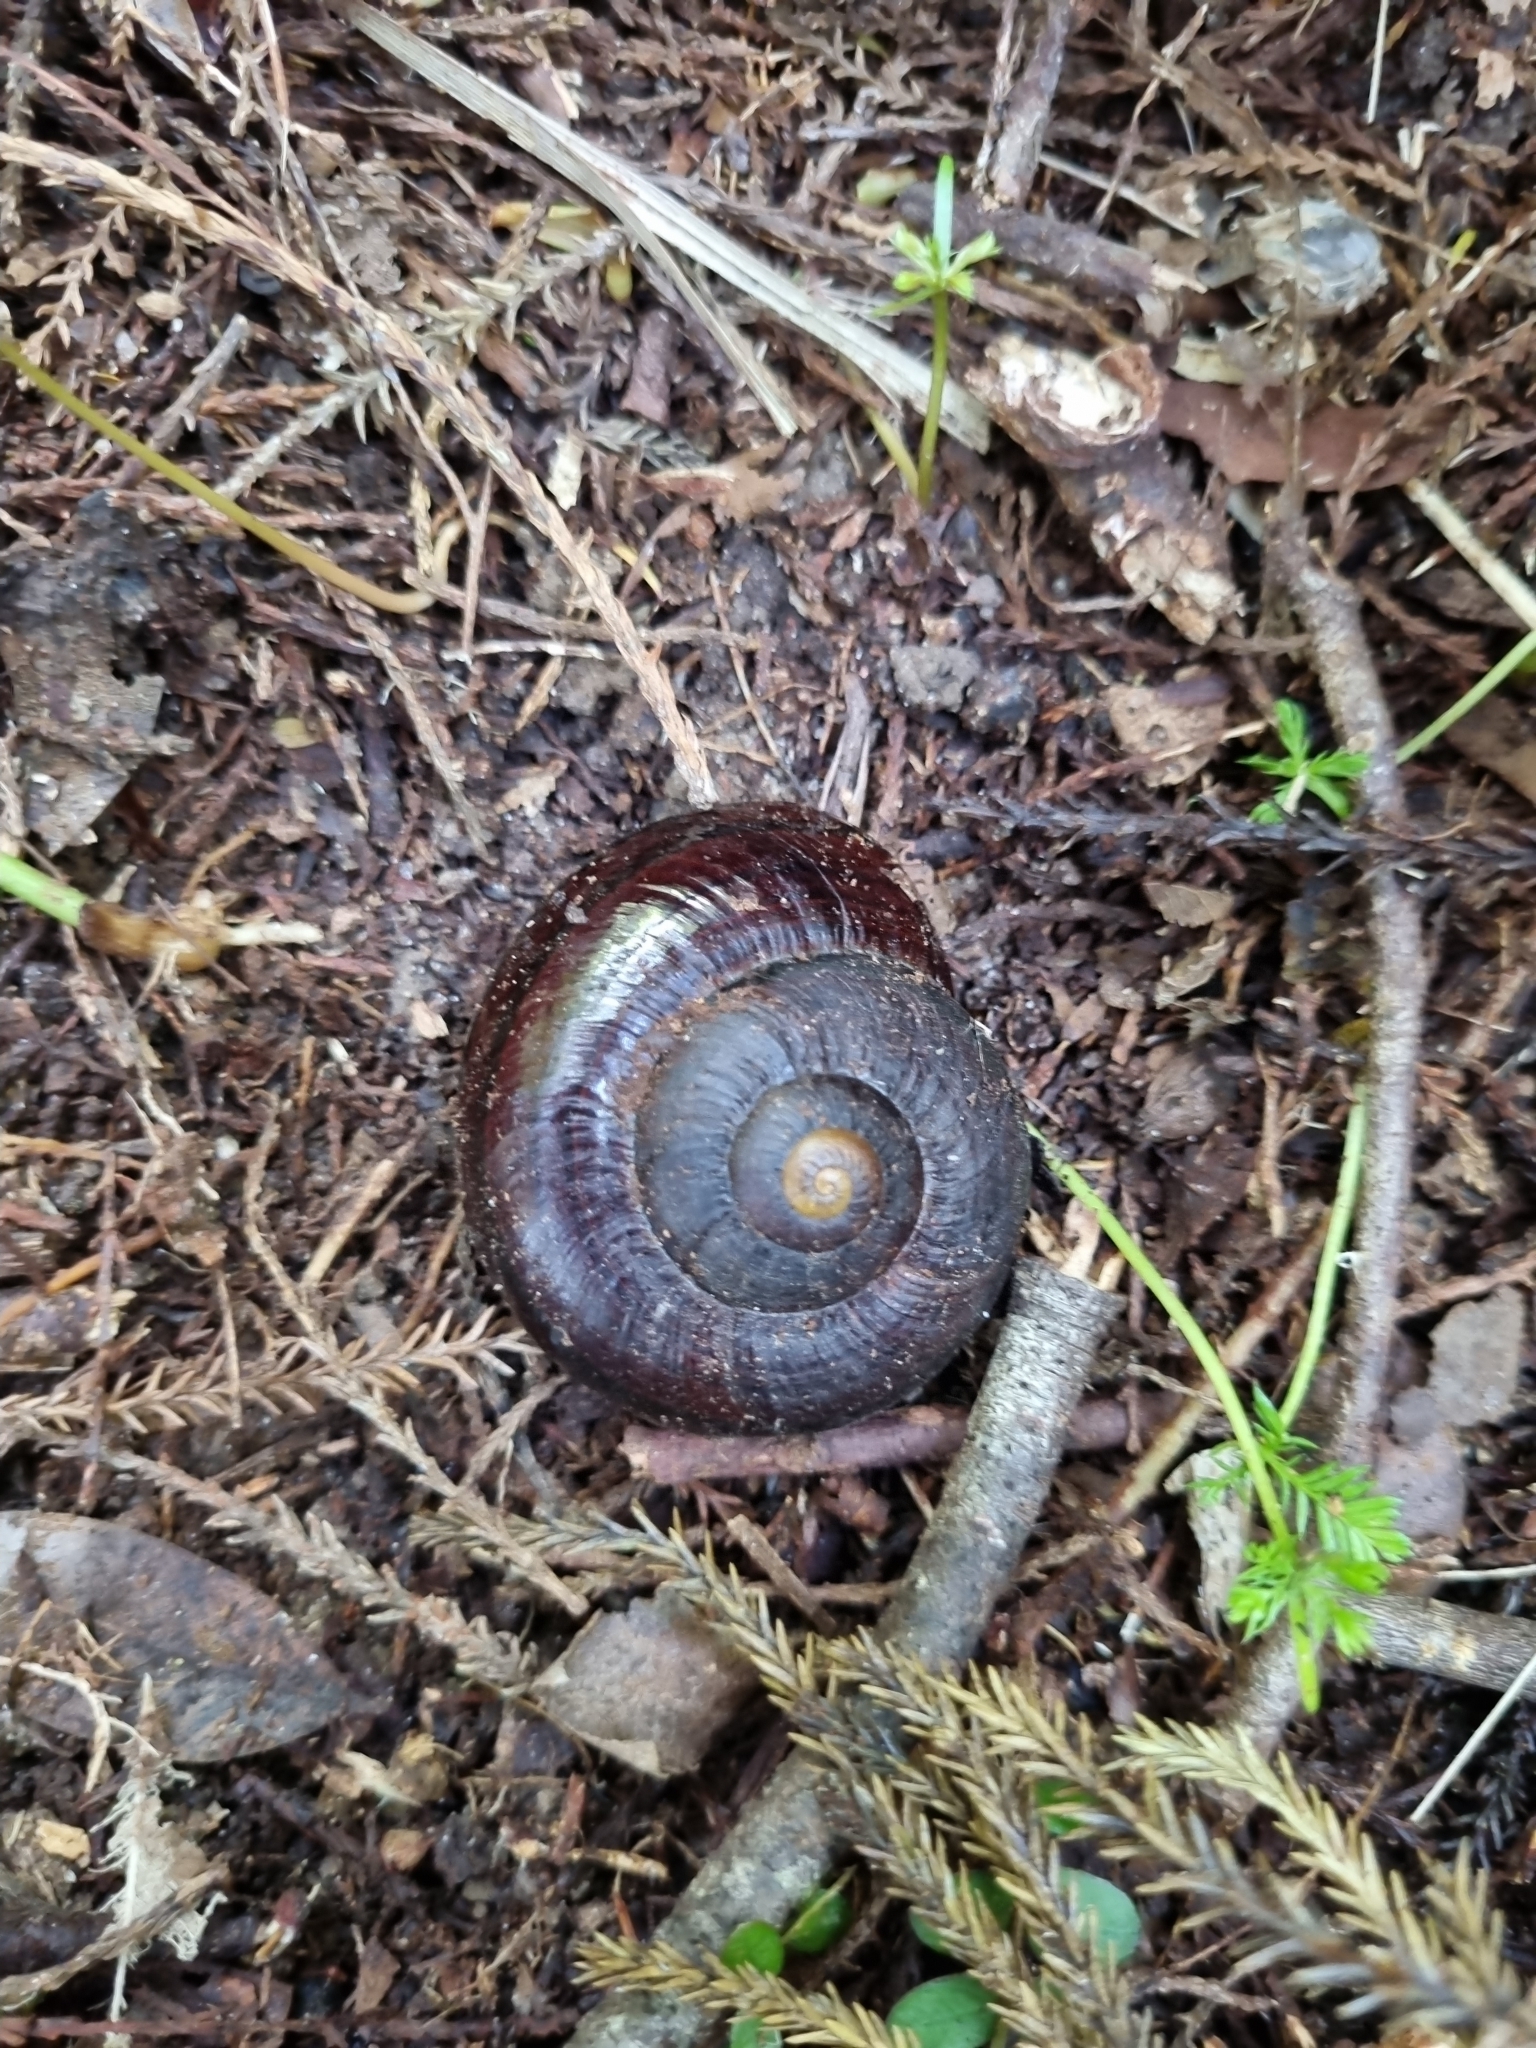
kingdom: Animalia
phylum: Mollusca
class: Gastropoda
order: Stylommatophora
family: Rhytididae
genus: Powelliphanta
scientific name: Powelliphanta gilliesi
